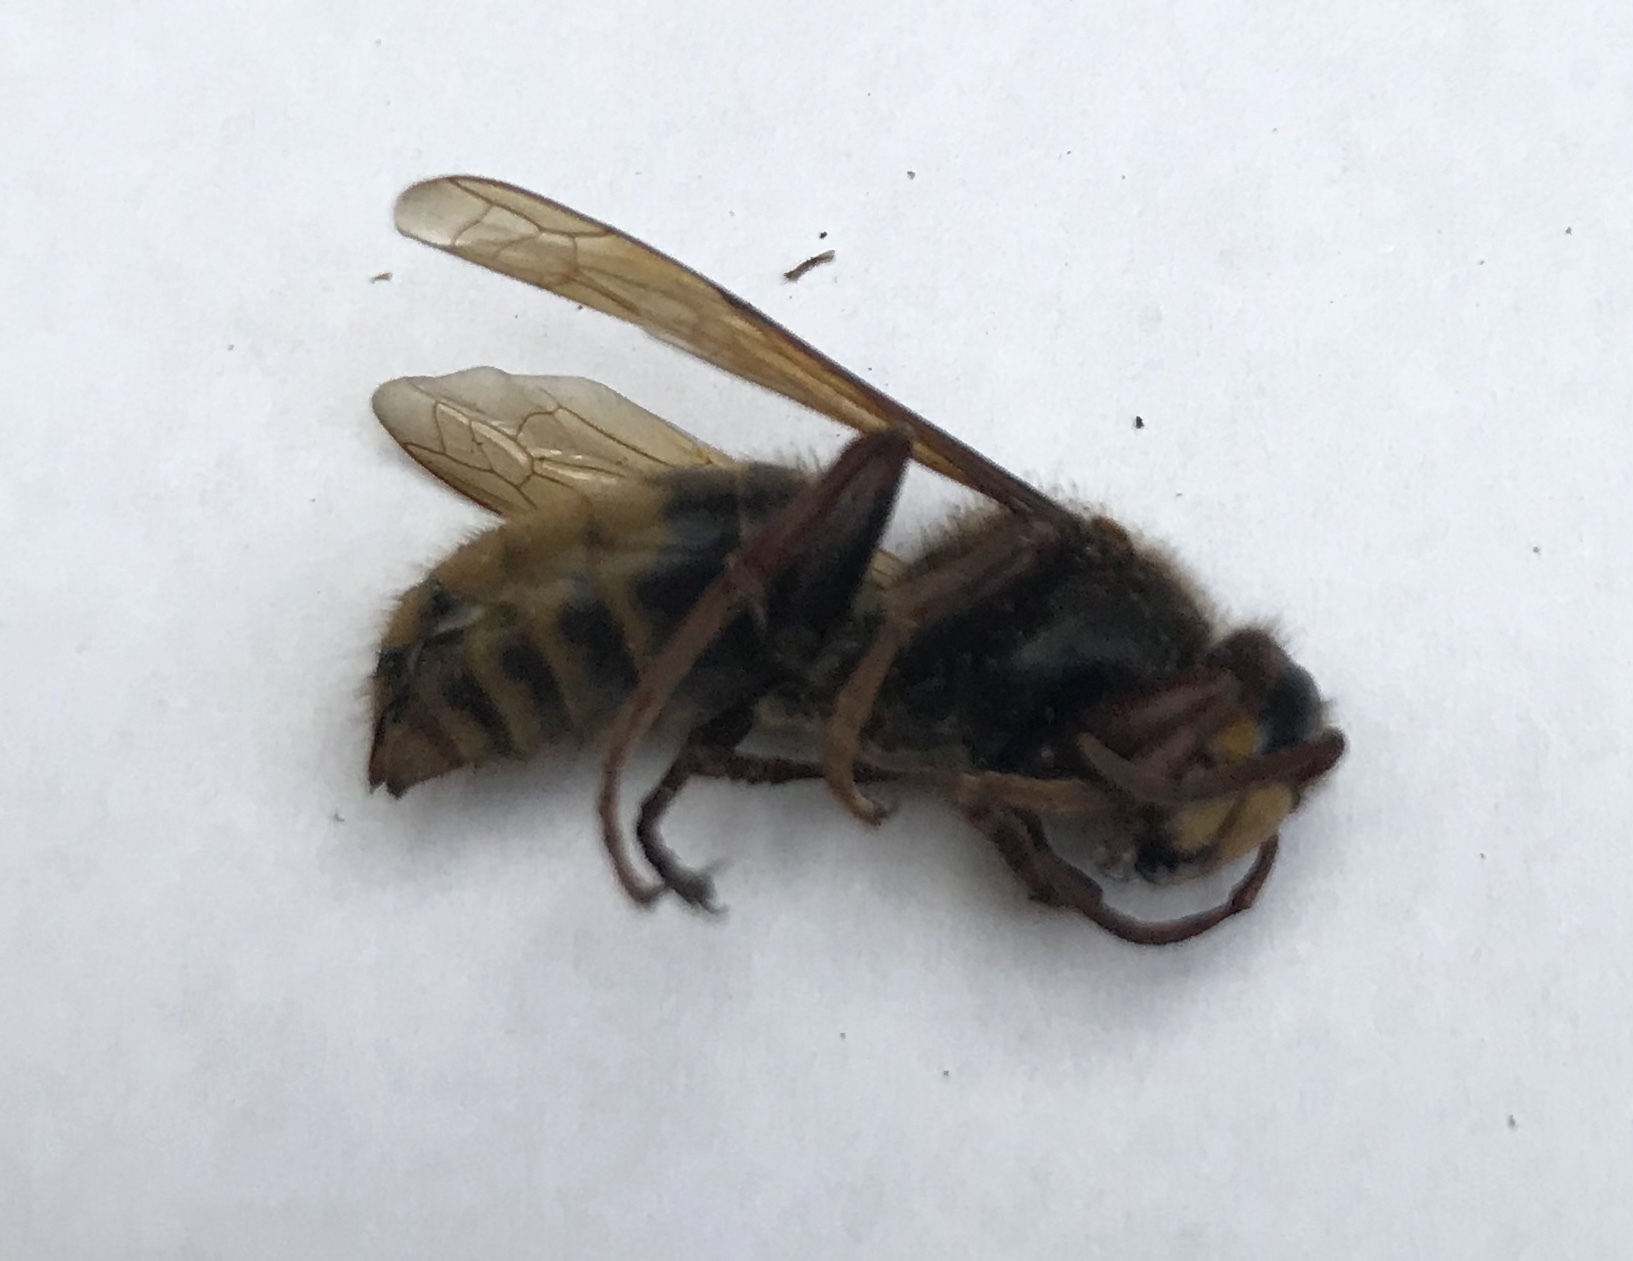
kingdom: Animalia
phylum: Arthropoda
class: Insecta
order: Hymenoptera
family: Vespidae
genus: Vespa
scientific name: Vespa crabro
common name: Hornet
